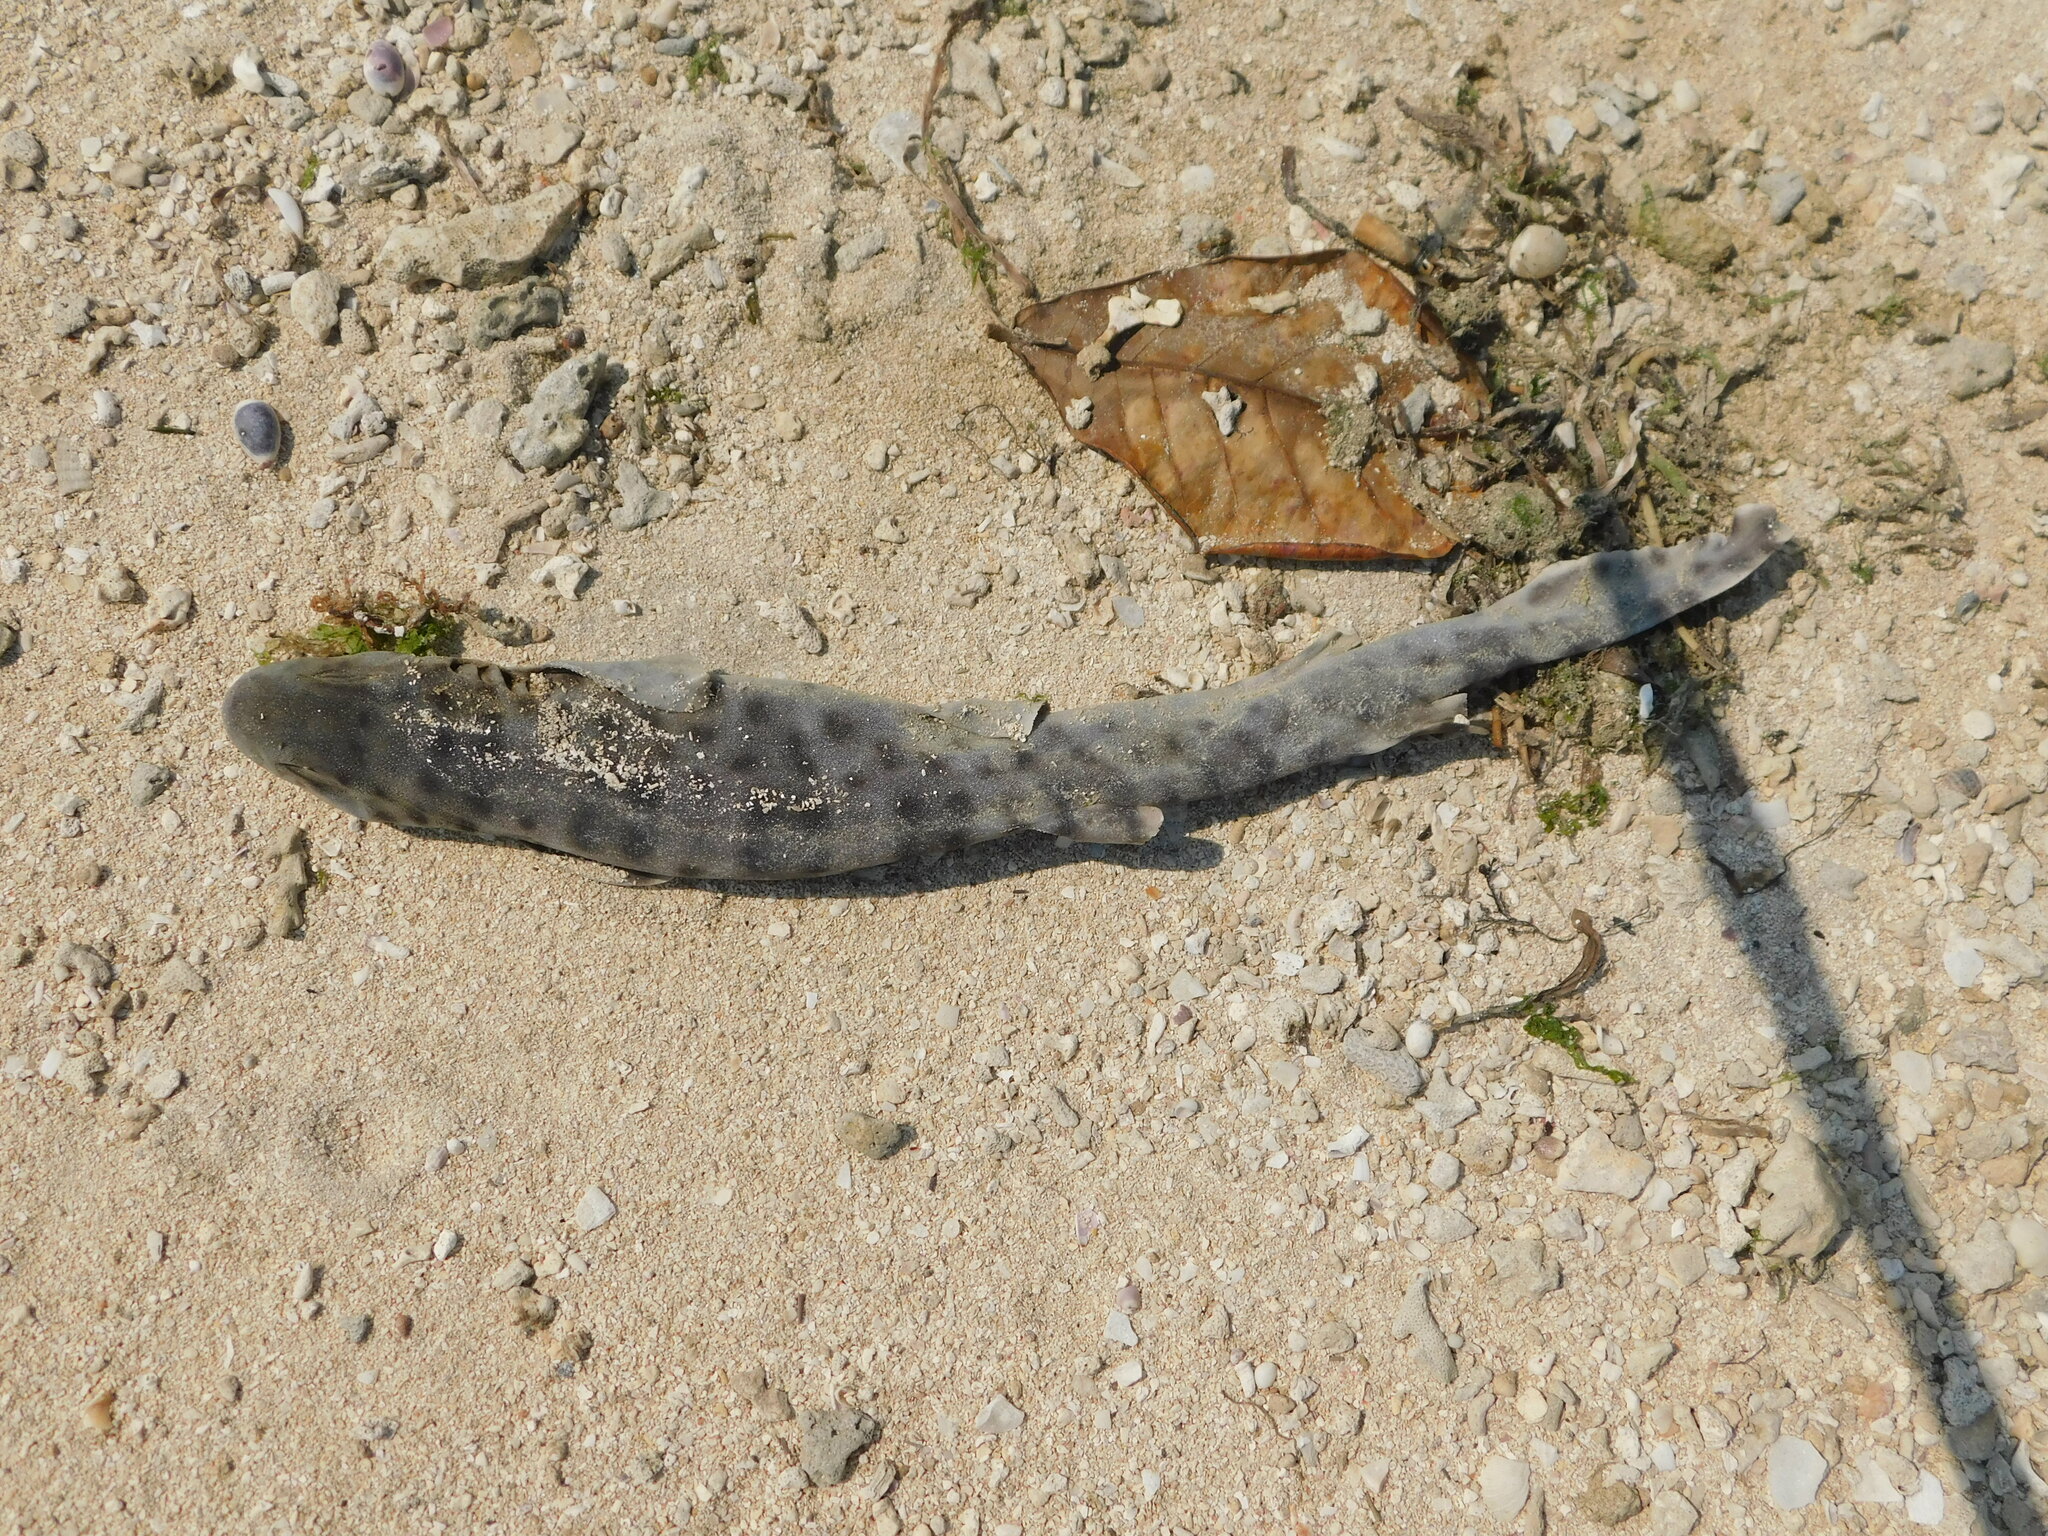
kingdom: Animalia
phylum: Chordata
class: Elasmobranchii
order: Carcharhiniformes
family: Scyliorhinidae
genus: Atelomycterus
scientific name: Atelomycterus baliensis
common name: Bali catshark
